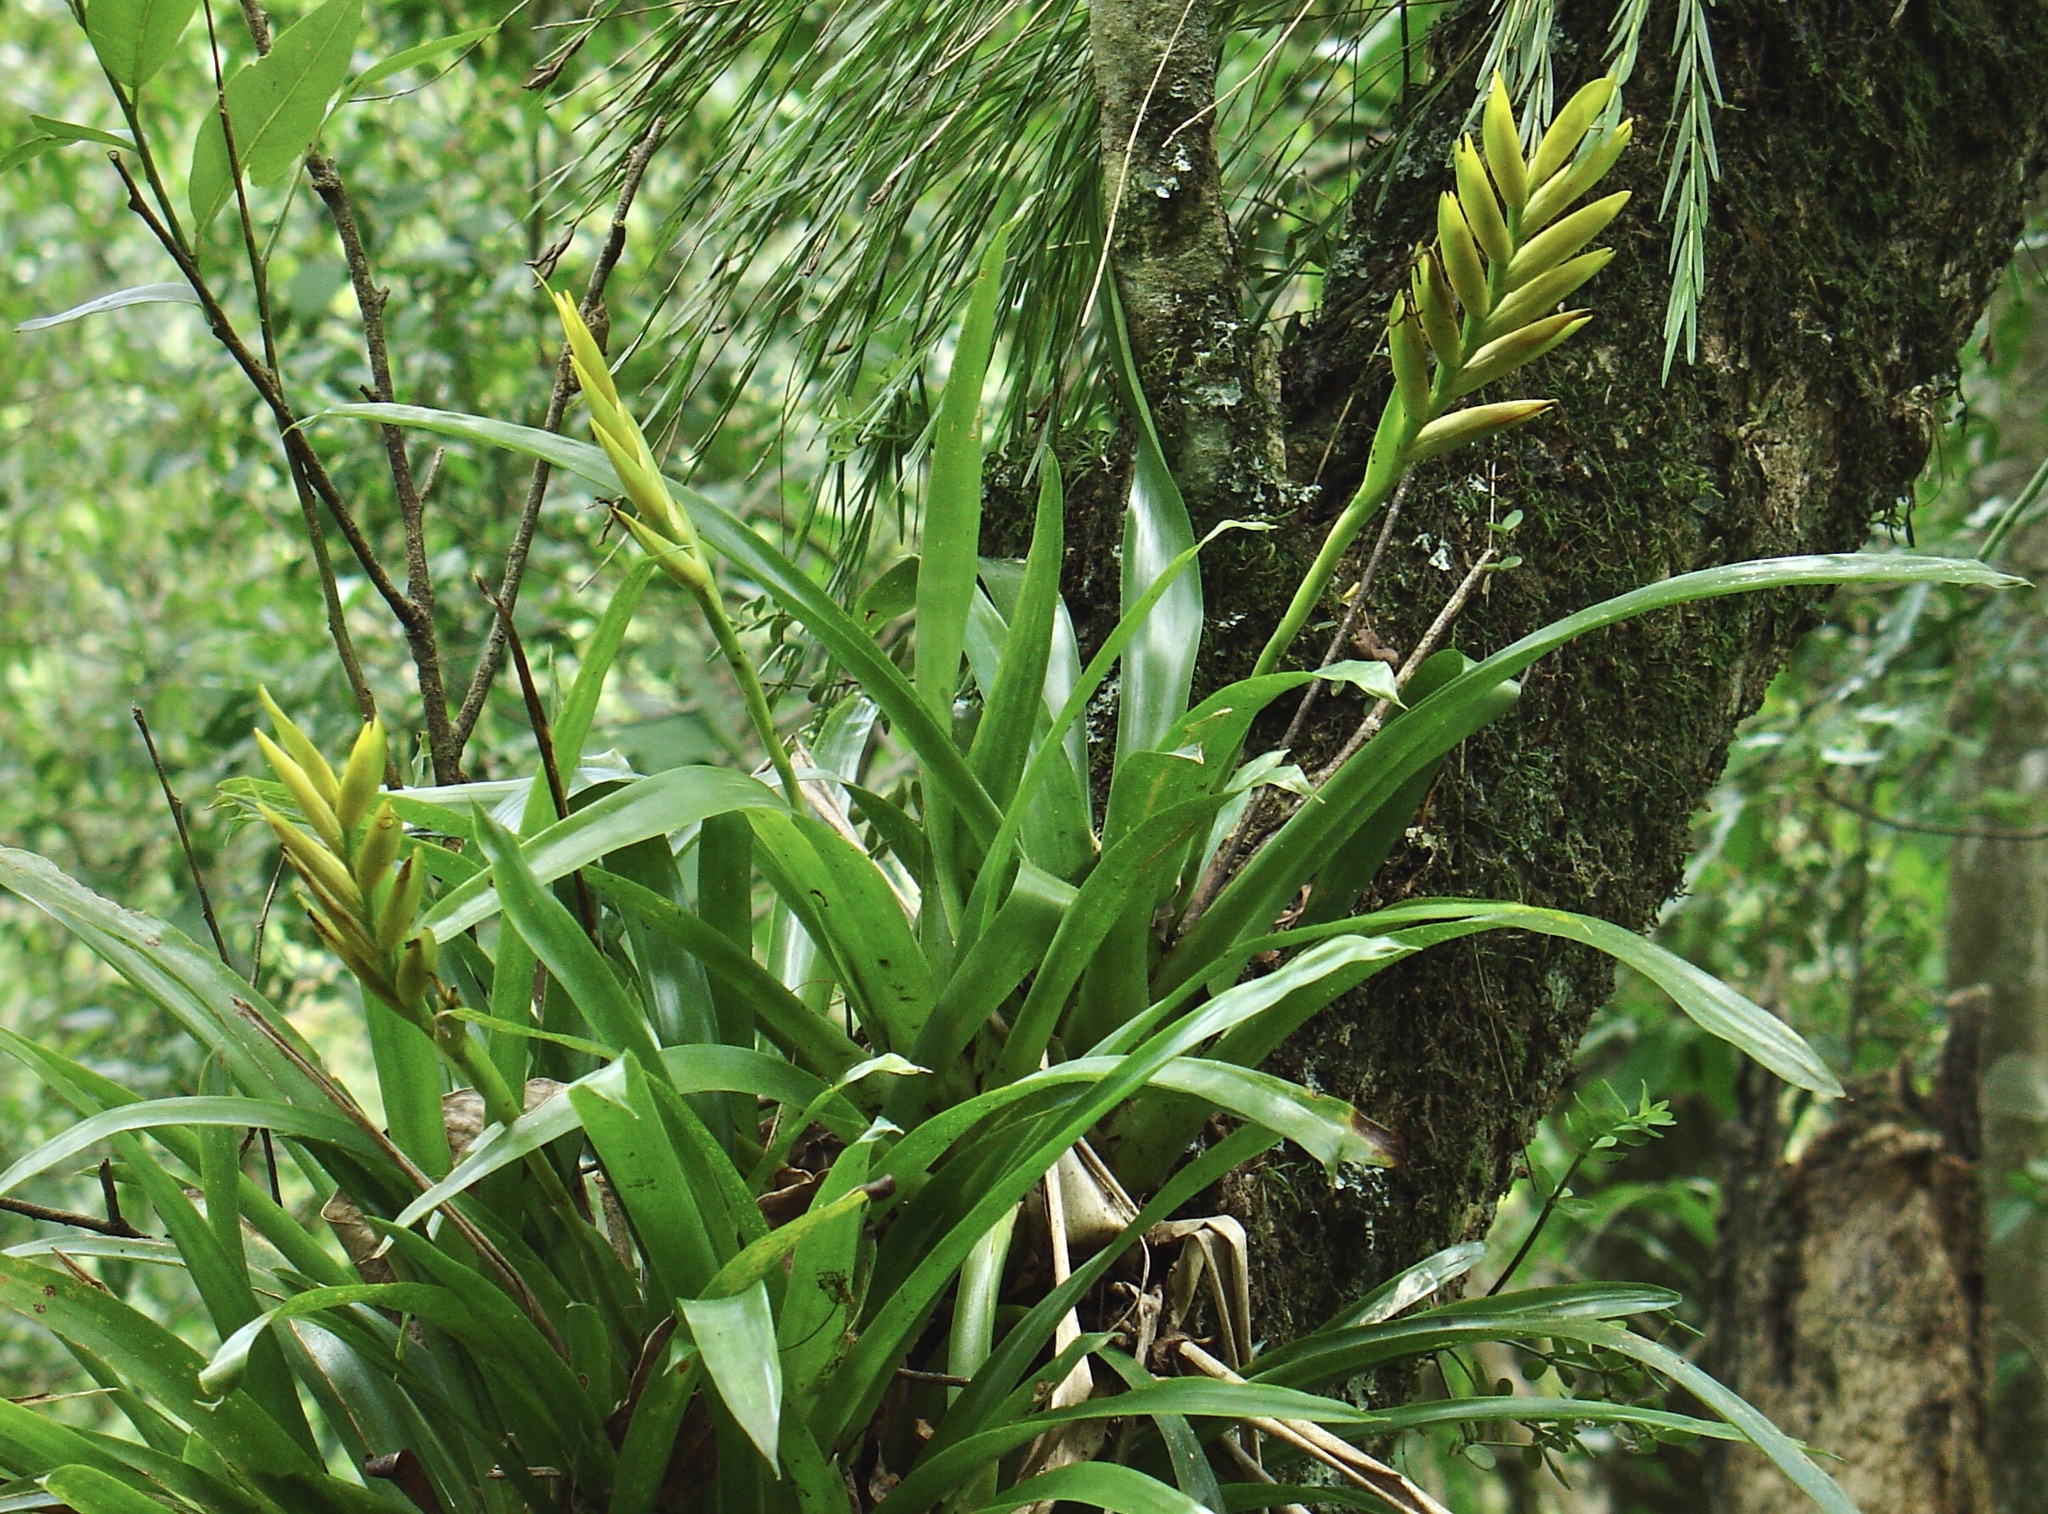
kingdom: Plantae
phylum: Tracheophyta
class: Liliopsida
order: Poales
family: Bromeliaceae
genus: Vriesea
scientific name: Vriesea maxoniana
